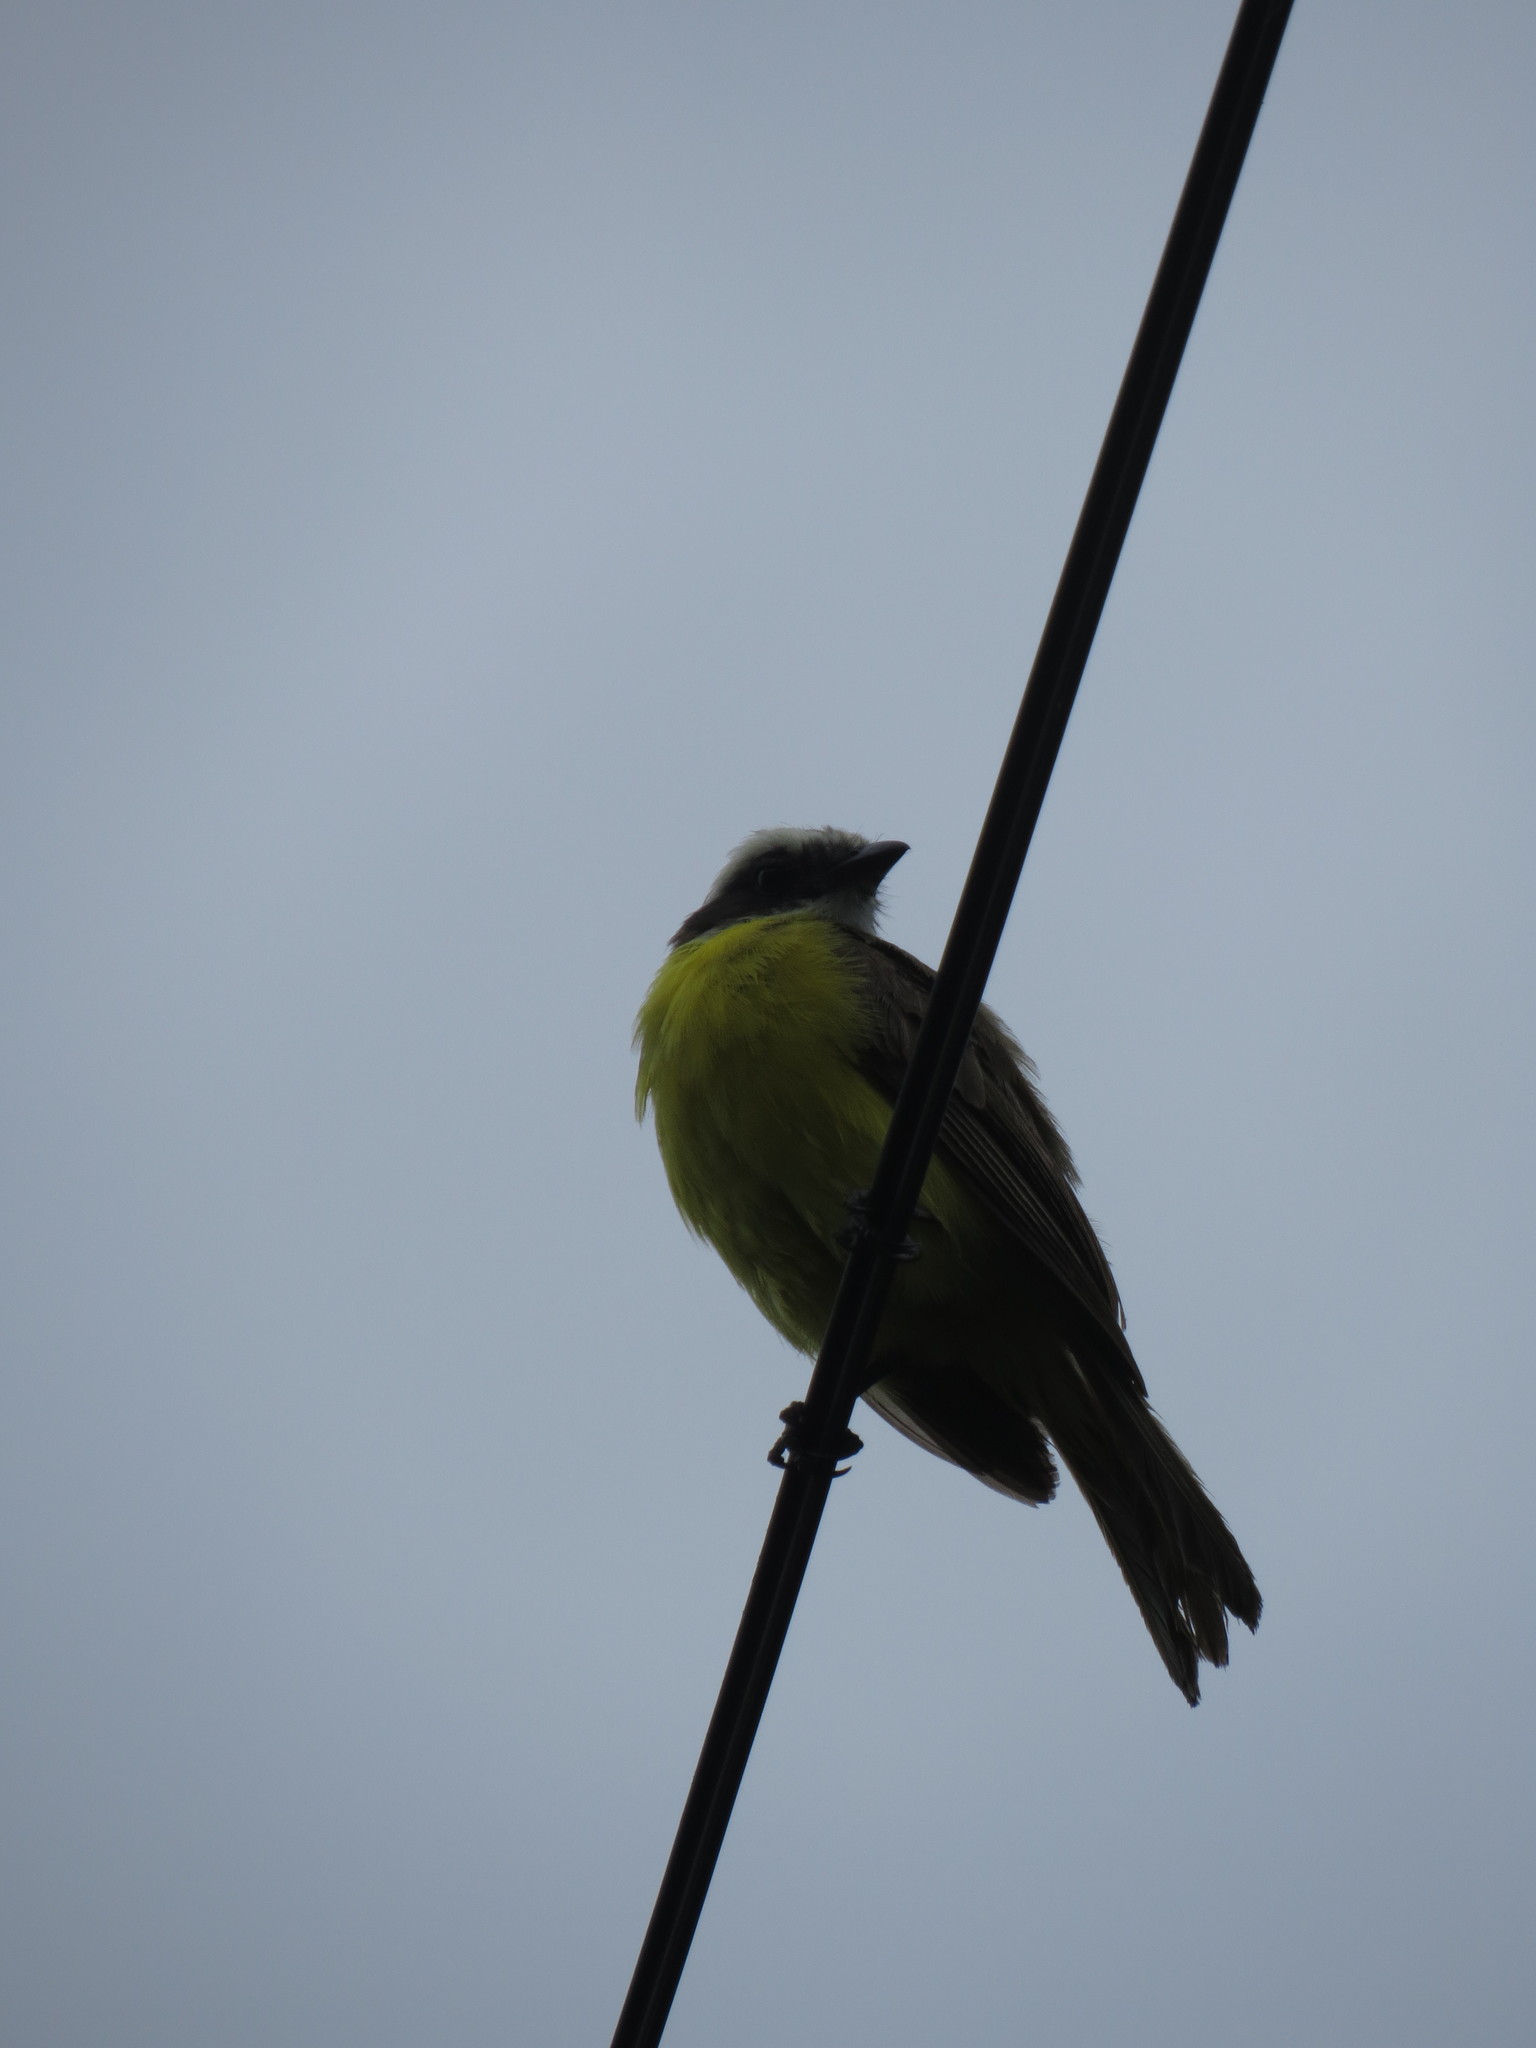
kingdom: Animalia
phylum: Chordata
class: Aves
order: Passeriformes
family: Tyrannidae
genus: Myiozetetes
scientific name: Myiozetetes similis
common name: Social flycatcher
